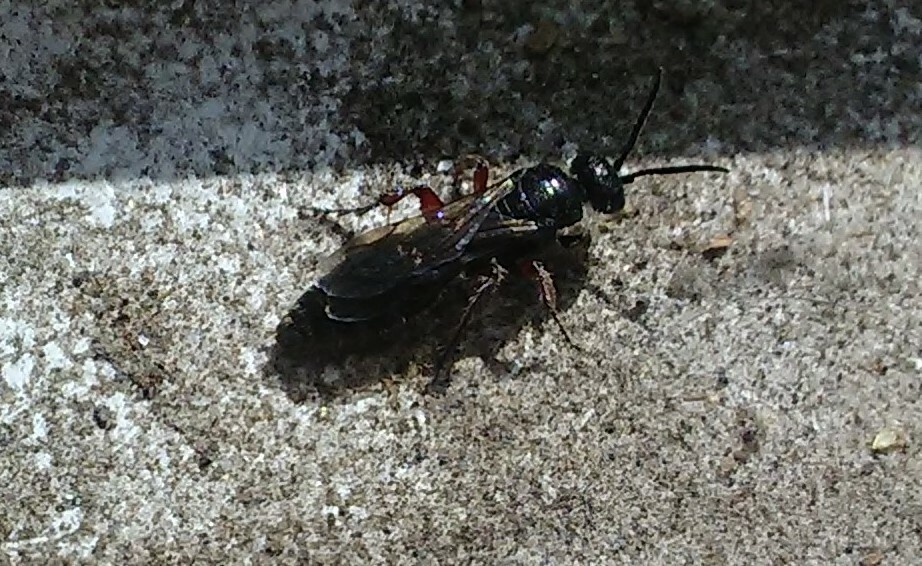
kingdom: Animalia
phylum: Arthropoda
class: Insecta
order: Hymenoptera
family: Tiphiidae
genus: Tiphia
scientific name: Tiphia femorata
